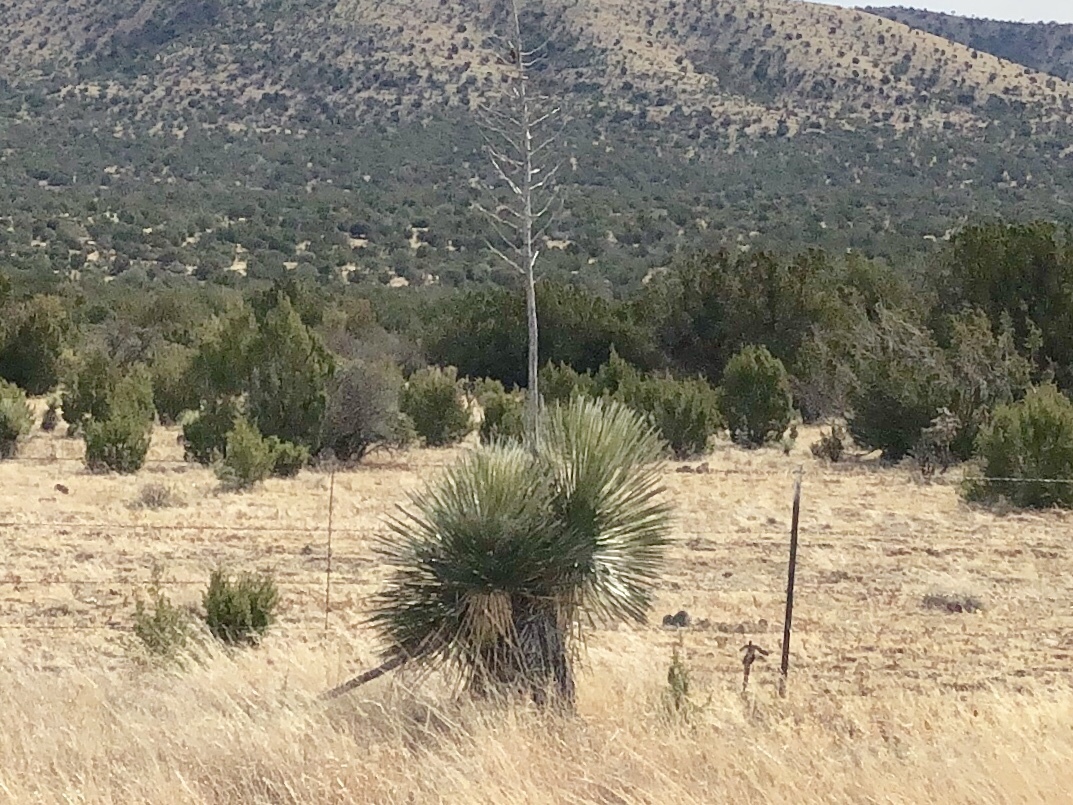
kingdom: Plantae
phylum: Tracheophyta
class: Liliopsida
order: Asparagales
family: Asparagaceae
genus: Yucca
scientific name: Yucca elata
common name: Palmella
